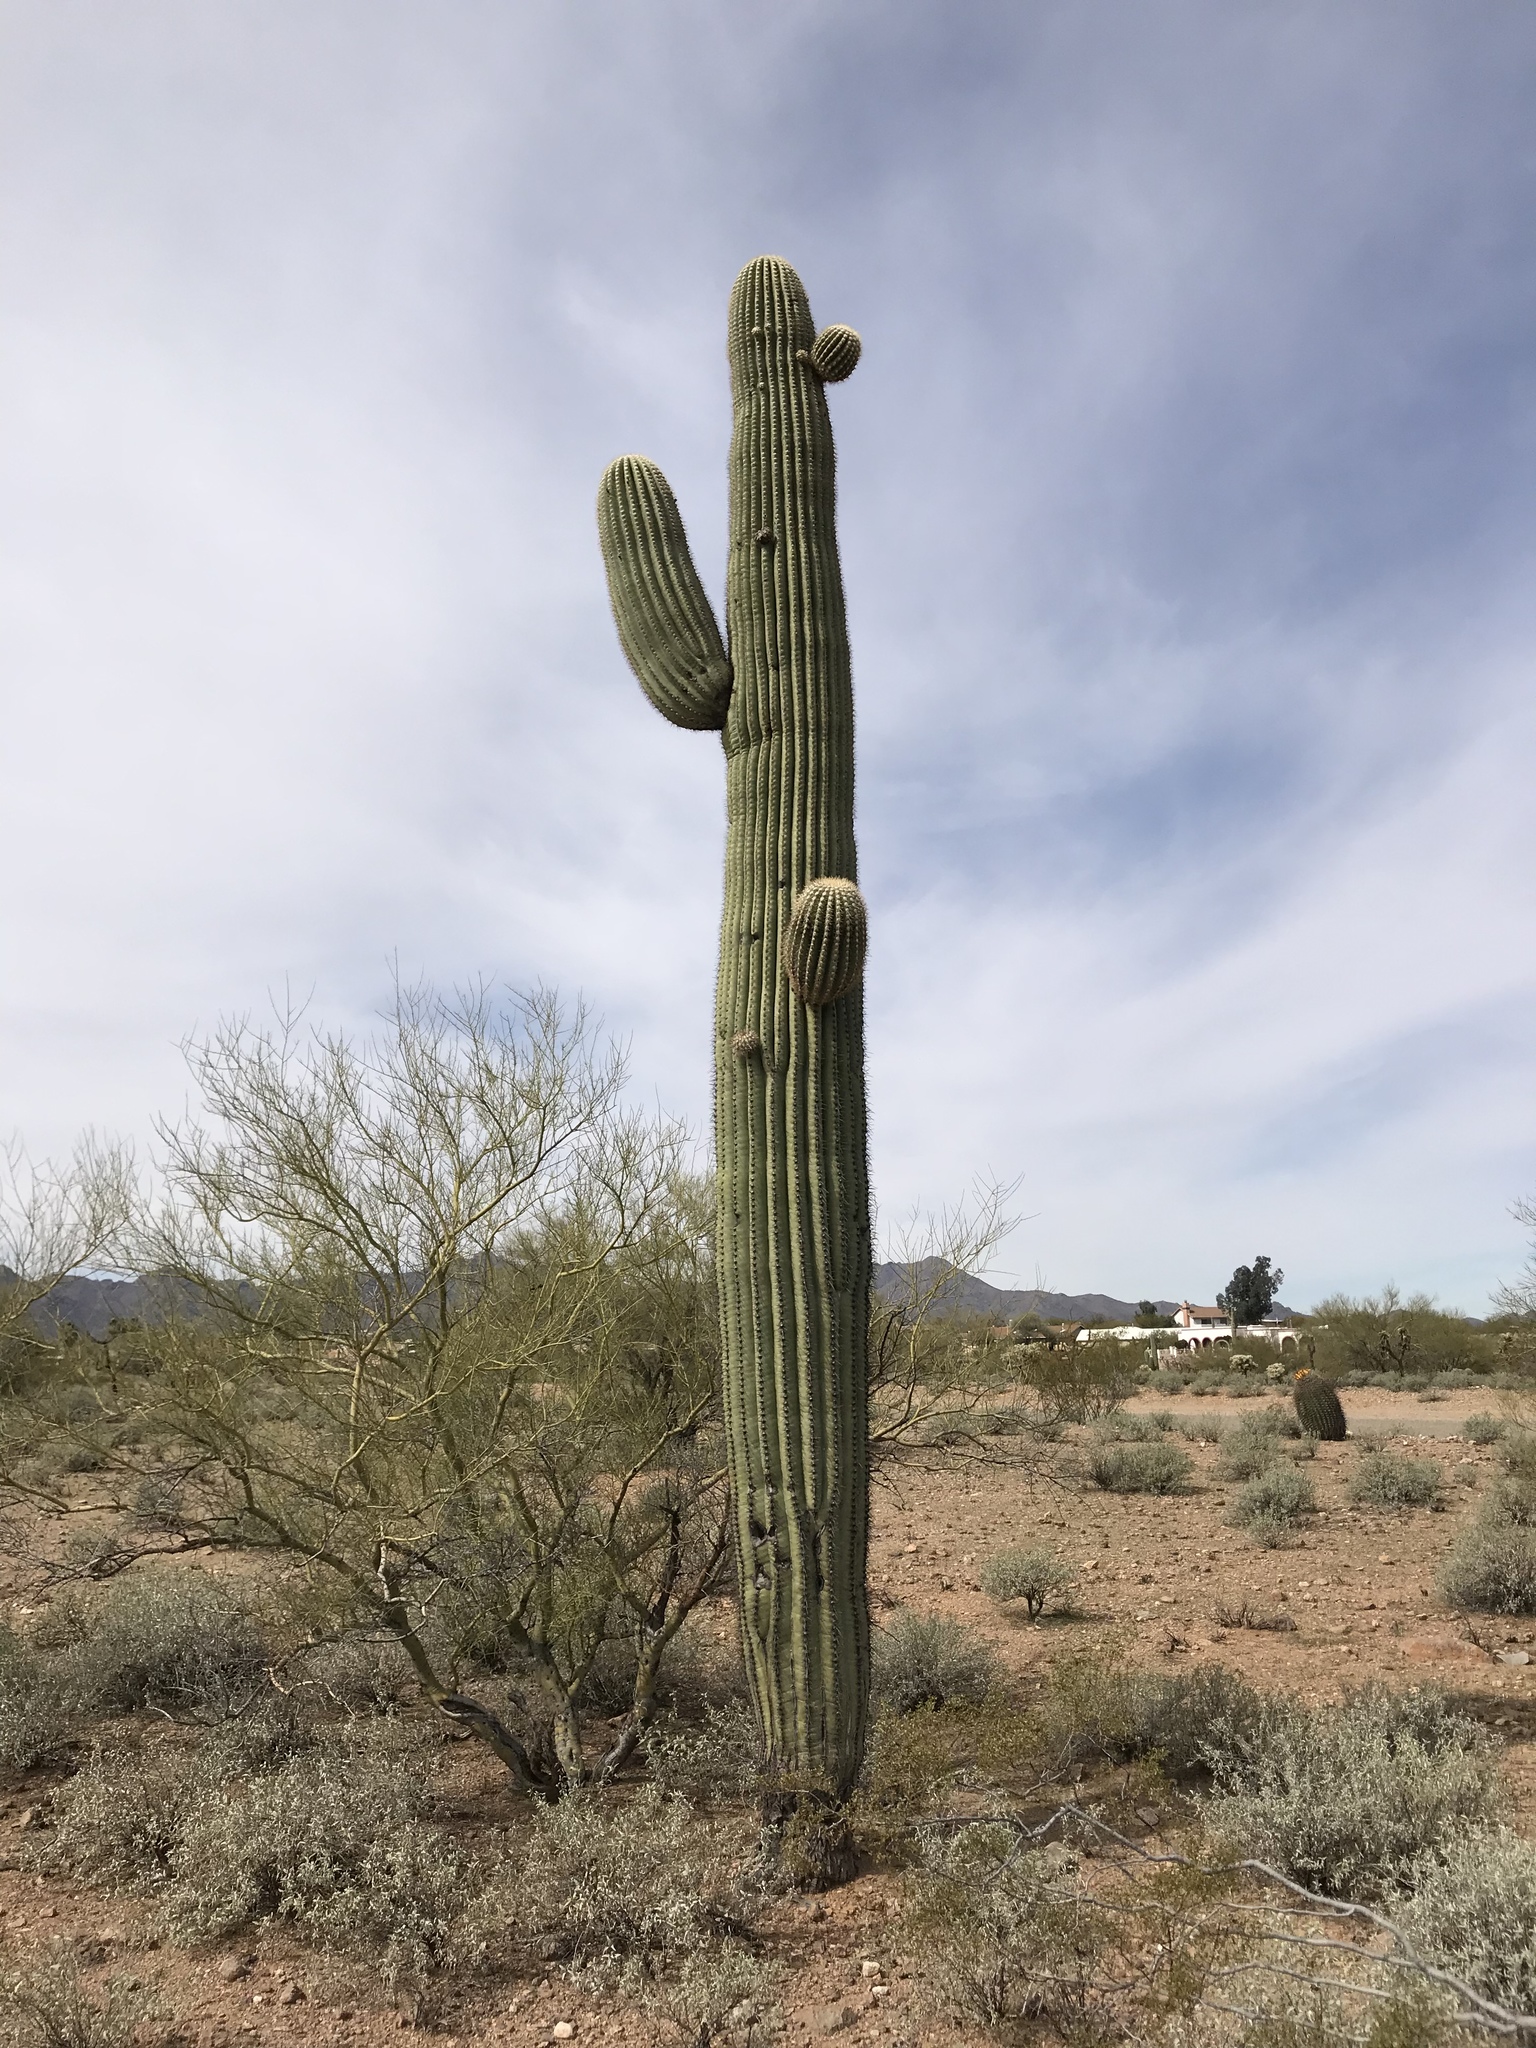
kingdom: Plantae
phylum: Tracheophyta
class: Magnoliopsida
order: Caryophyllales
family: Cactaceae
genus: Carnegiea
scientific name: Carnegiea gigantea
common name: Saguaro
